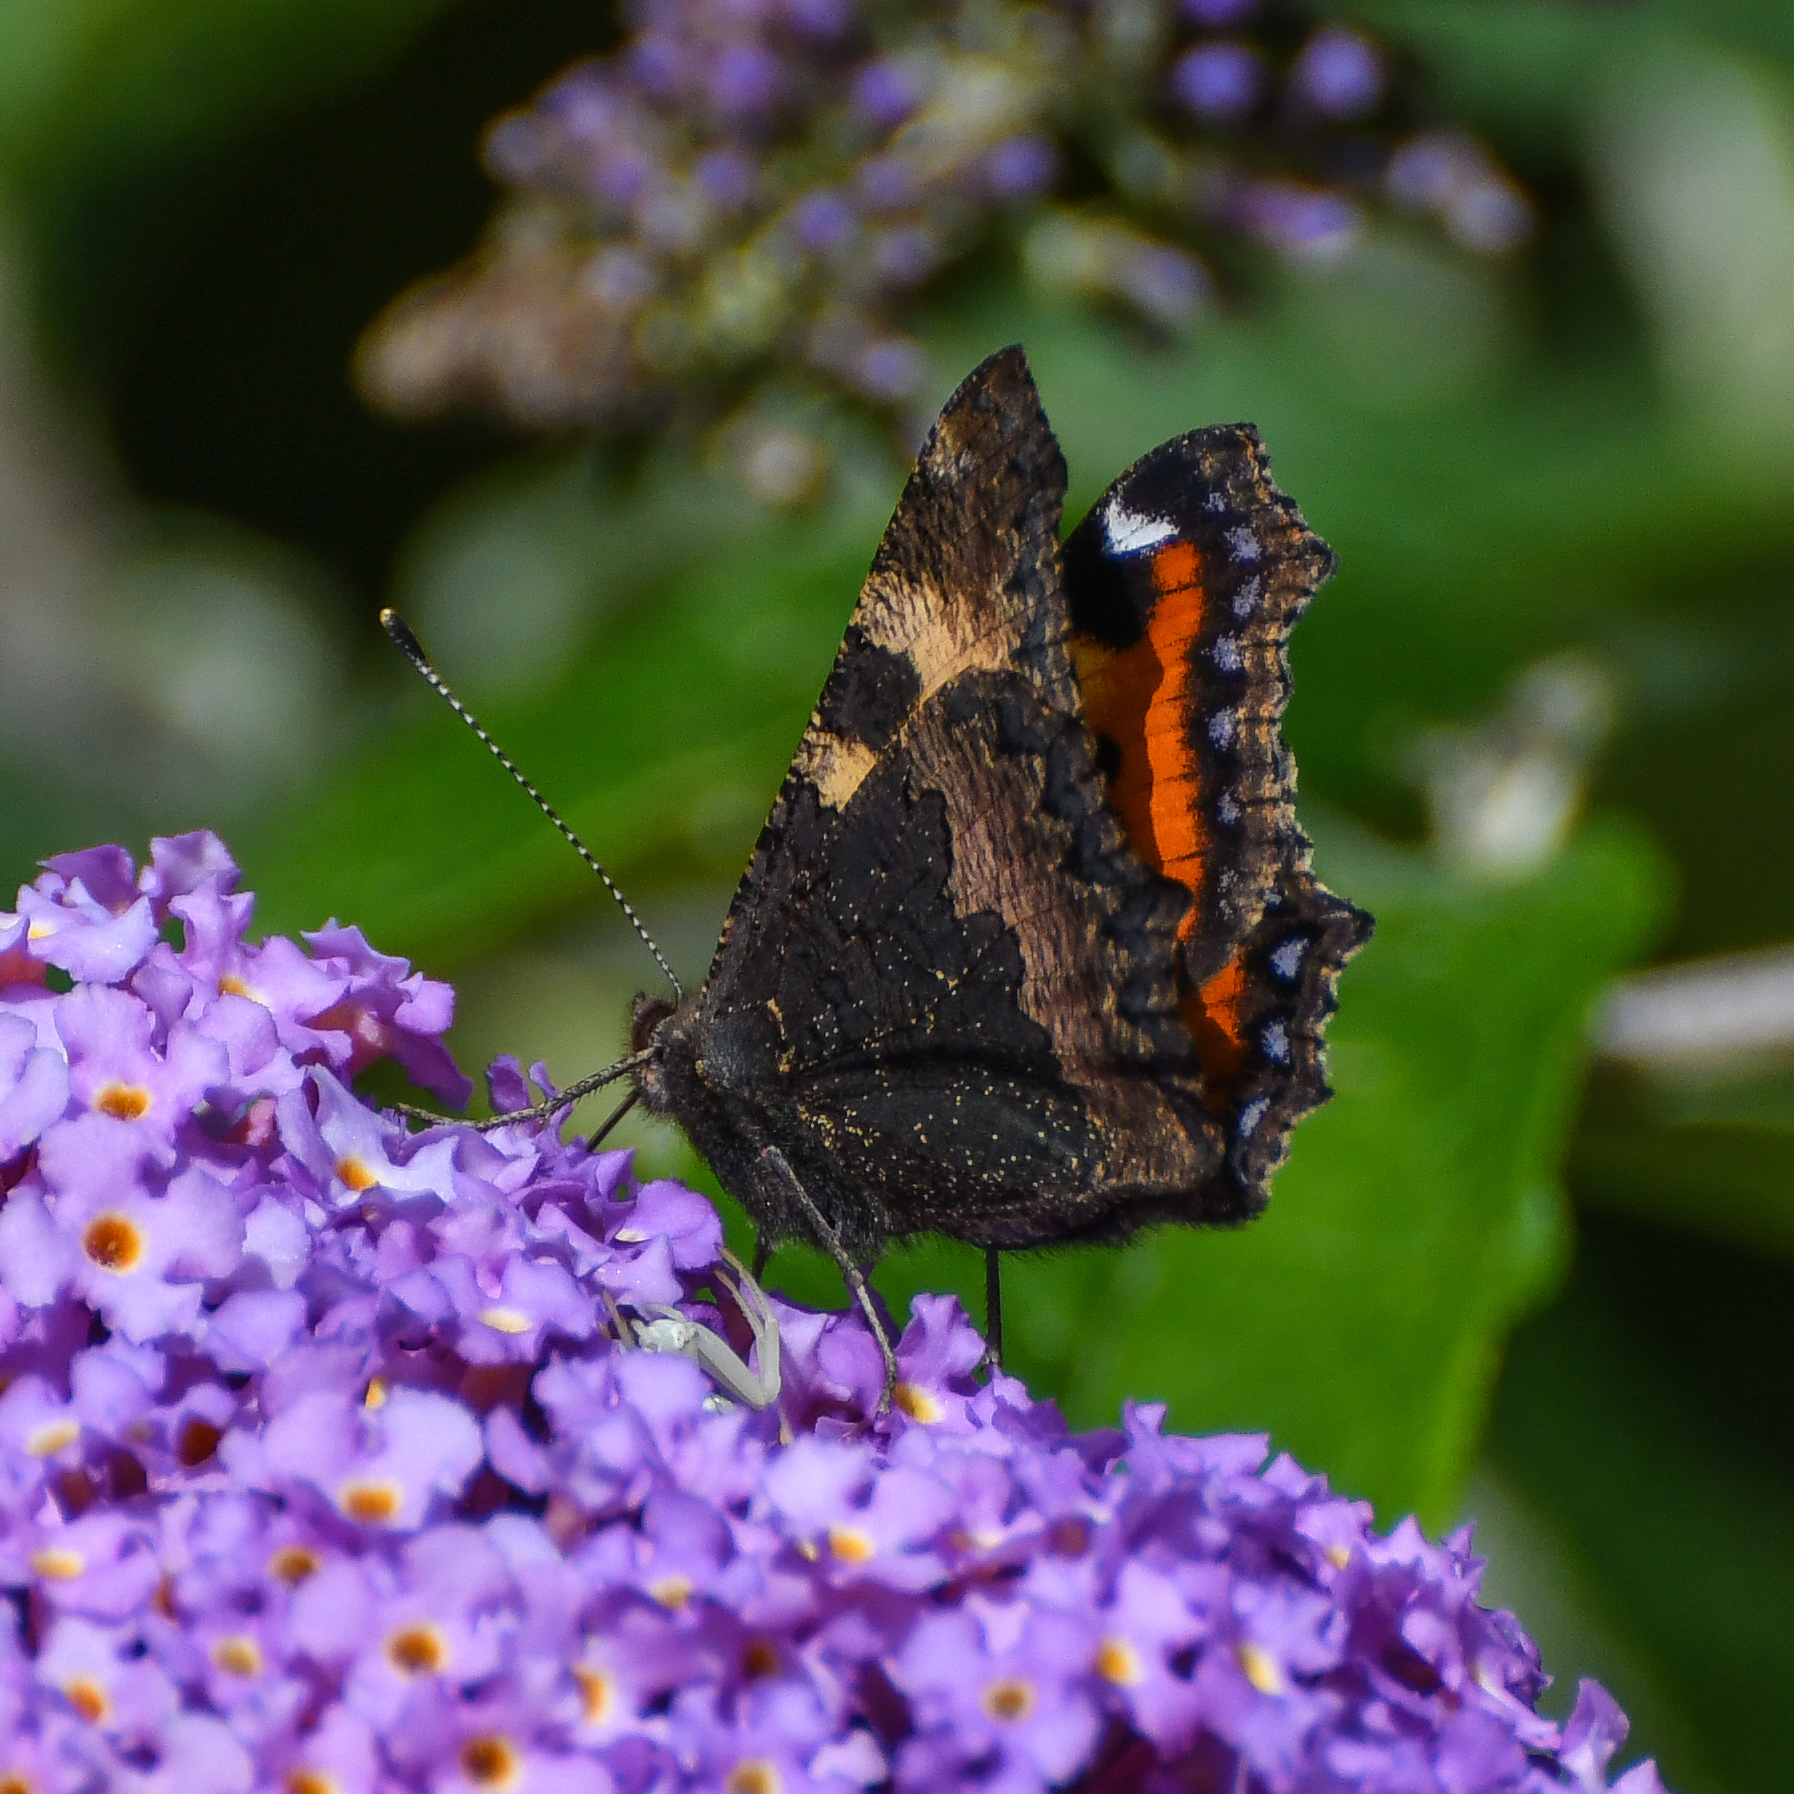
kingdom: Animalia
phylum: Arthropoda
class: Insecta
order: Lepidoptera
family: Nymphalidae
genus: Aglais
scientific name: Aglais urticae
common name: Small tortoiseshell
